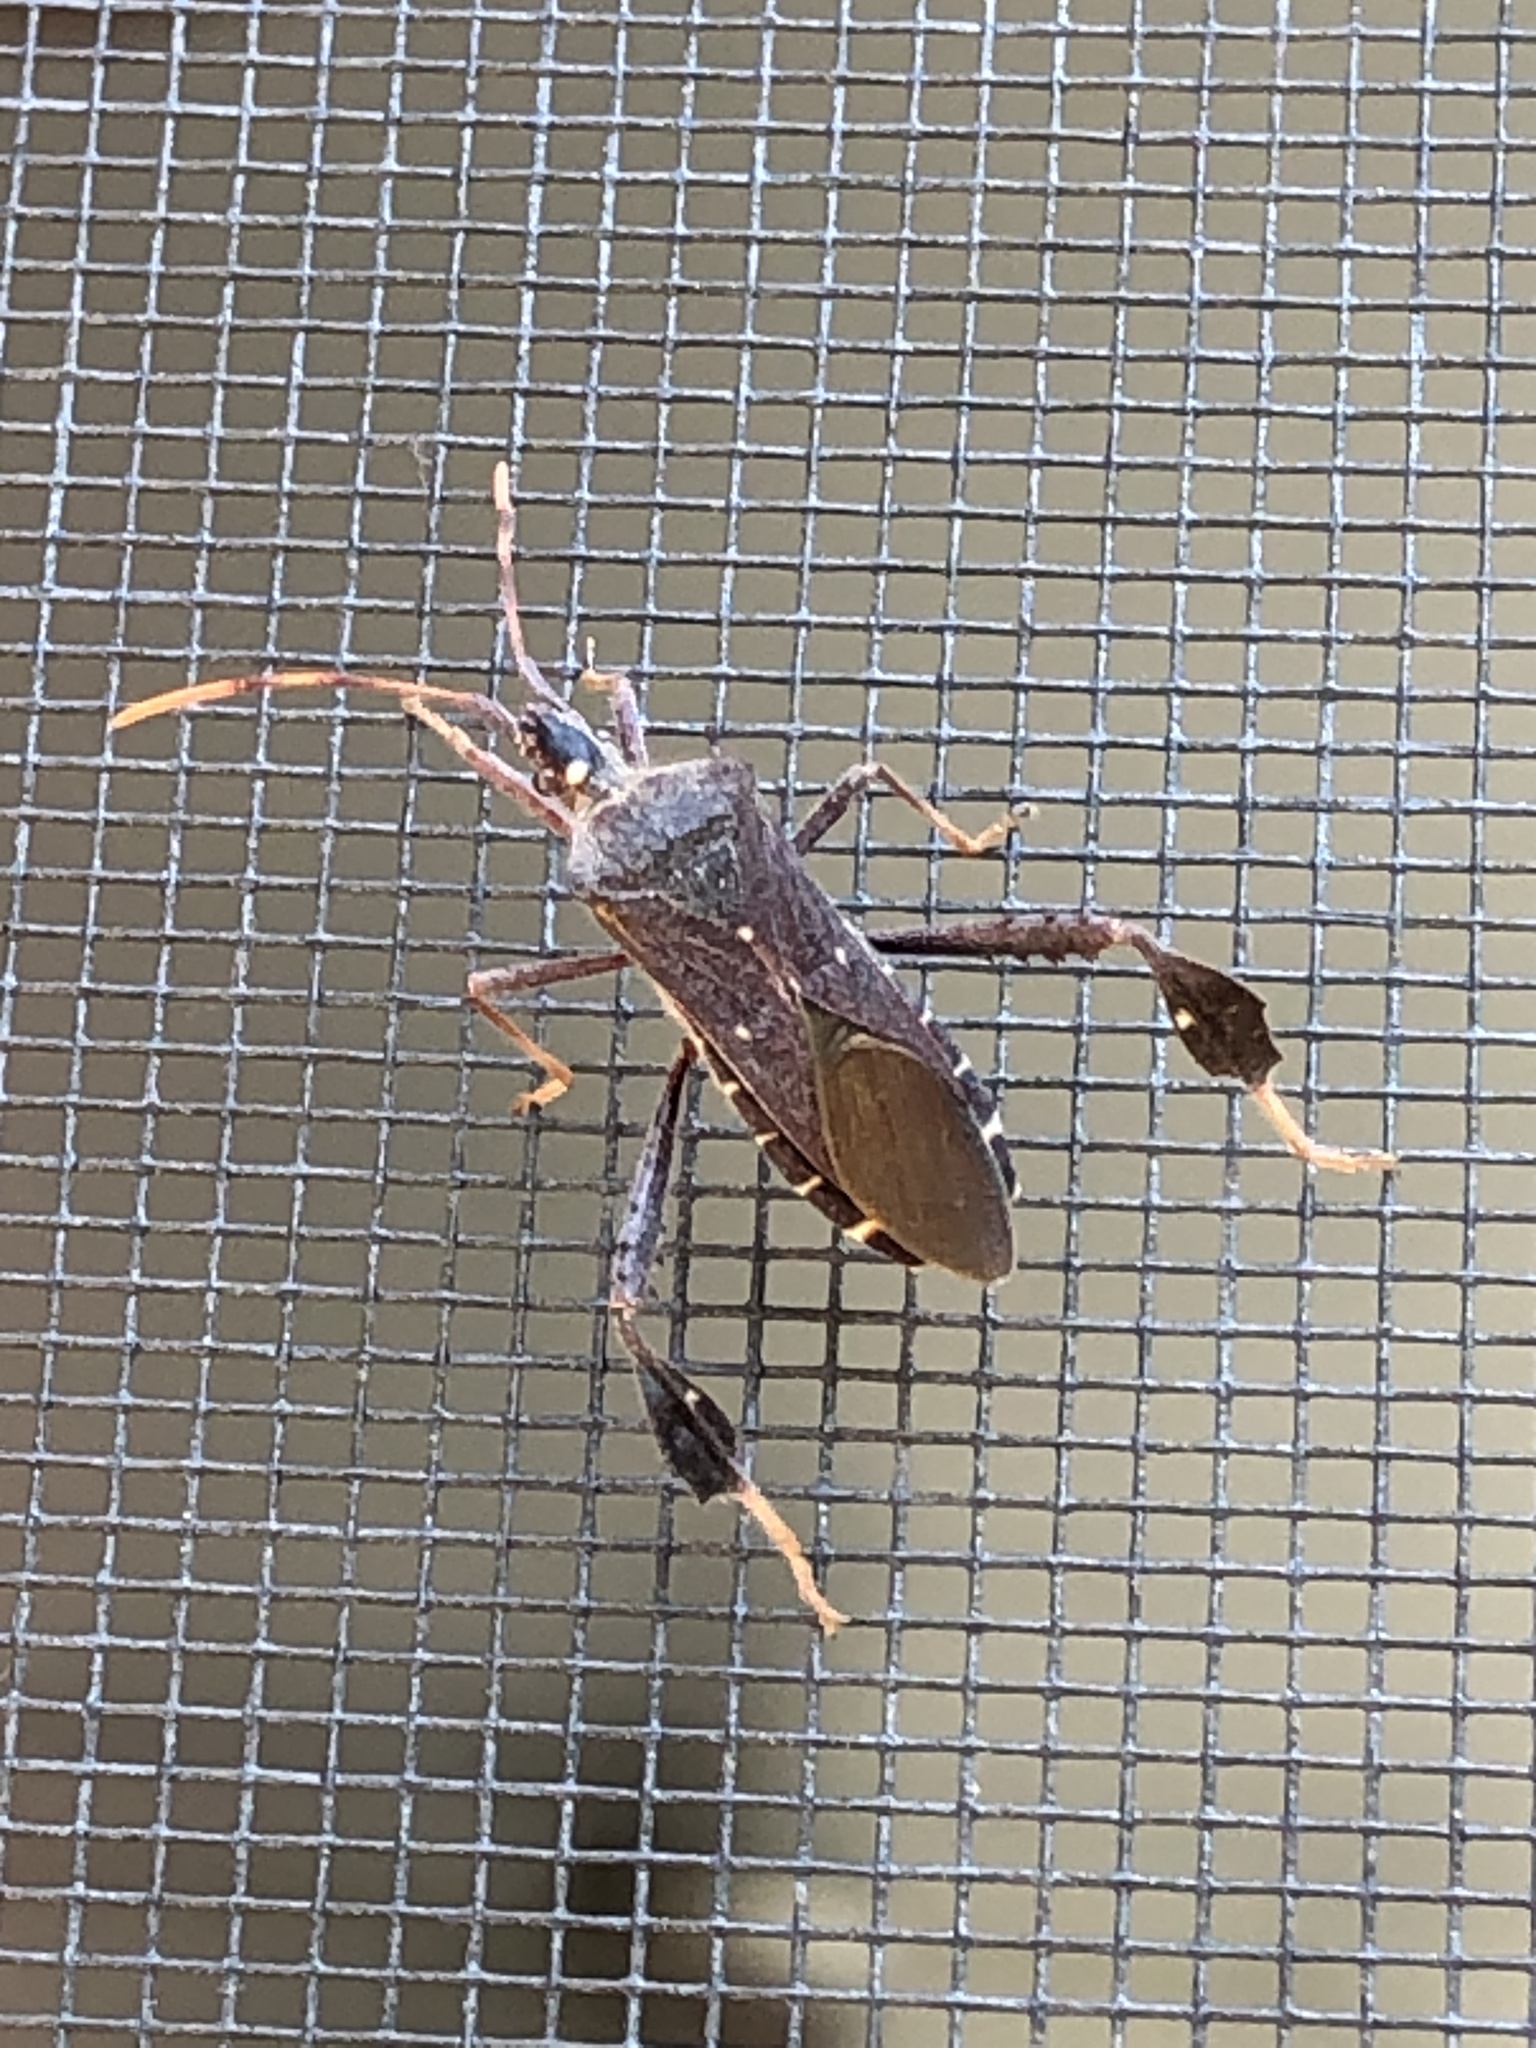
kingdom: Animalia
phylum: Arthropoda
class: Insecta
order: Hemiptera
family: Coreidae
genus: Leptoglossus
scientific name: Leptoglossus oppositus
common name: Northern leaf-footed bug
